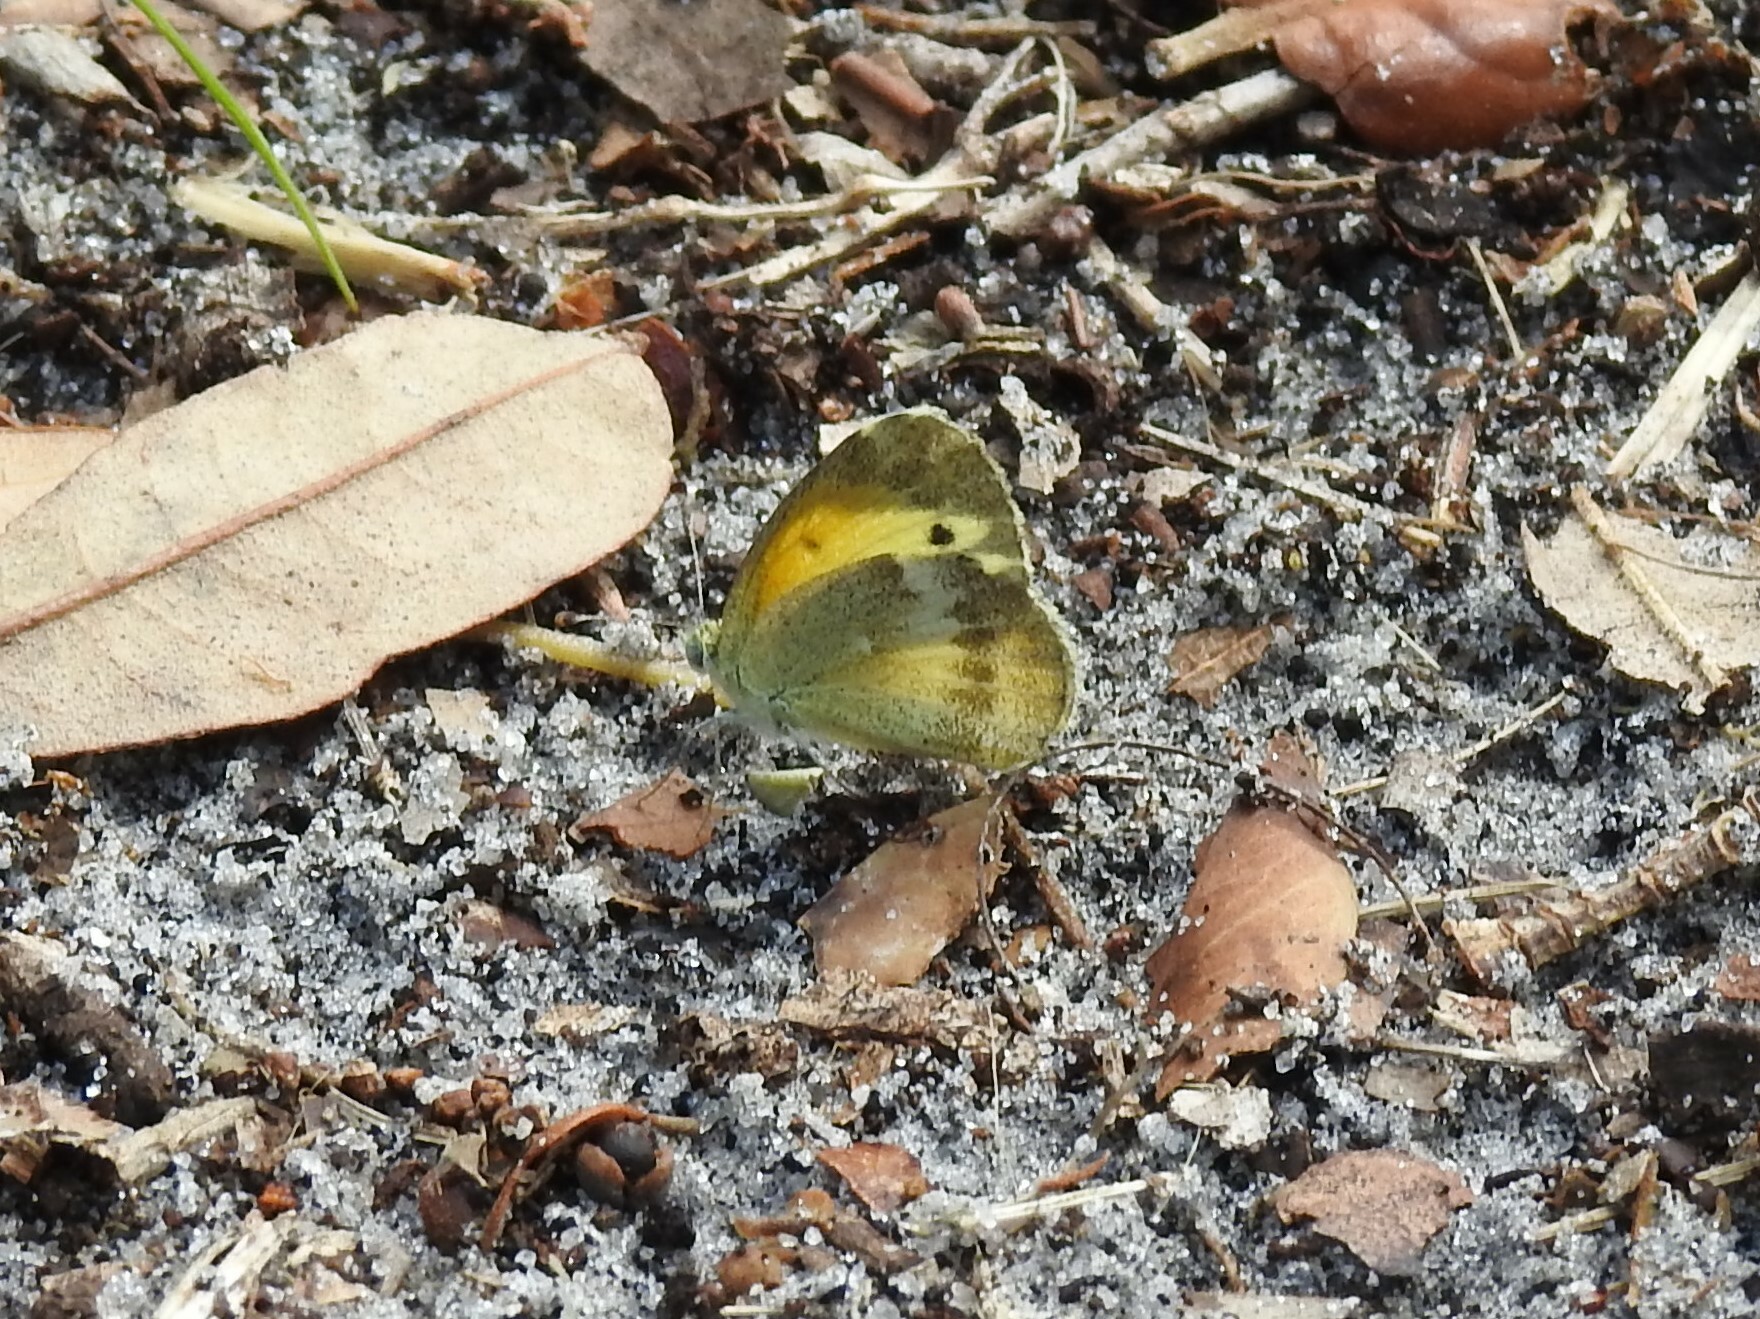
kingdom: Animalia
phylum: Arthropoda
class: Insecta
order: Lepidoptera
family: Pieridae
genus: Nathalis
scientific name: Nathalis iole
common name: Dainty sulphur
